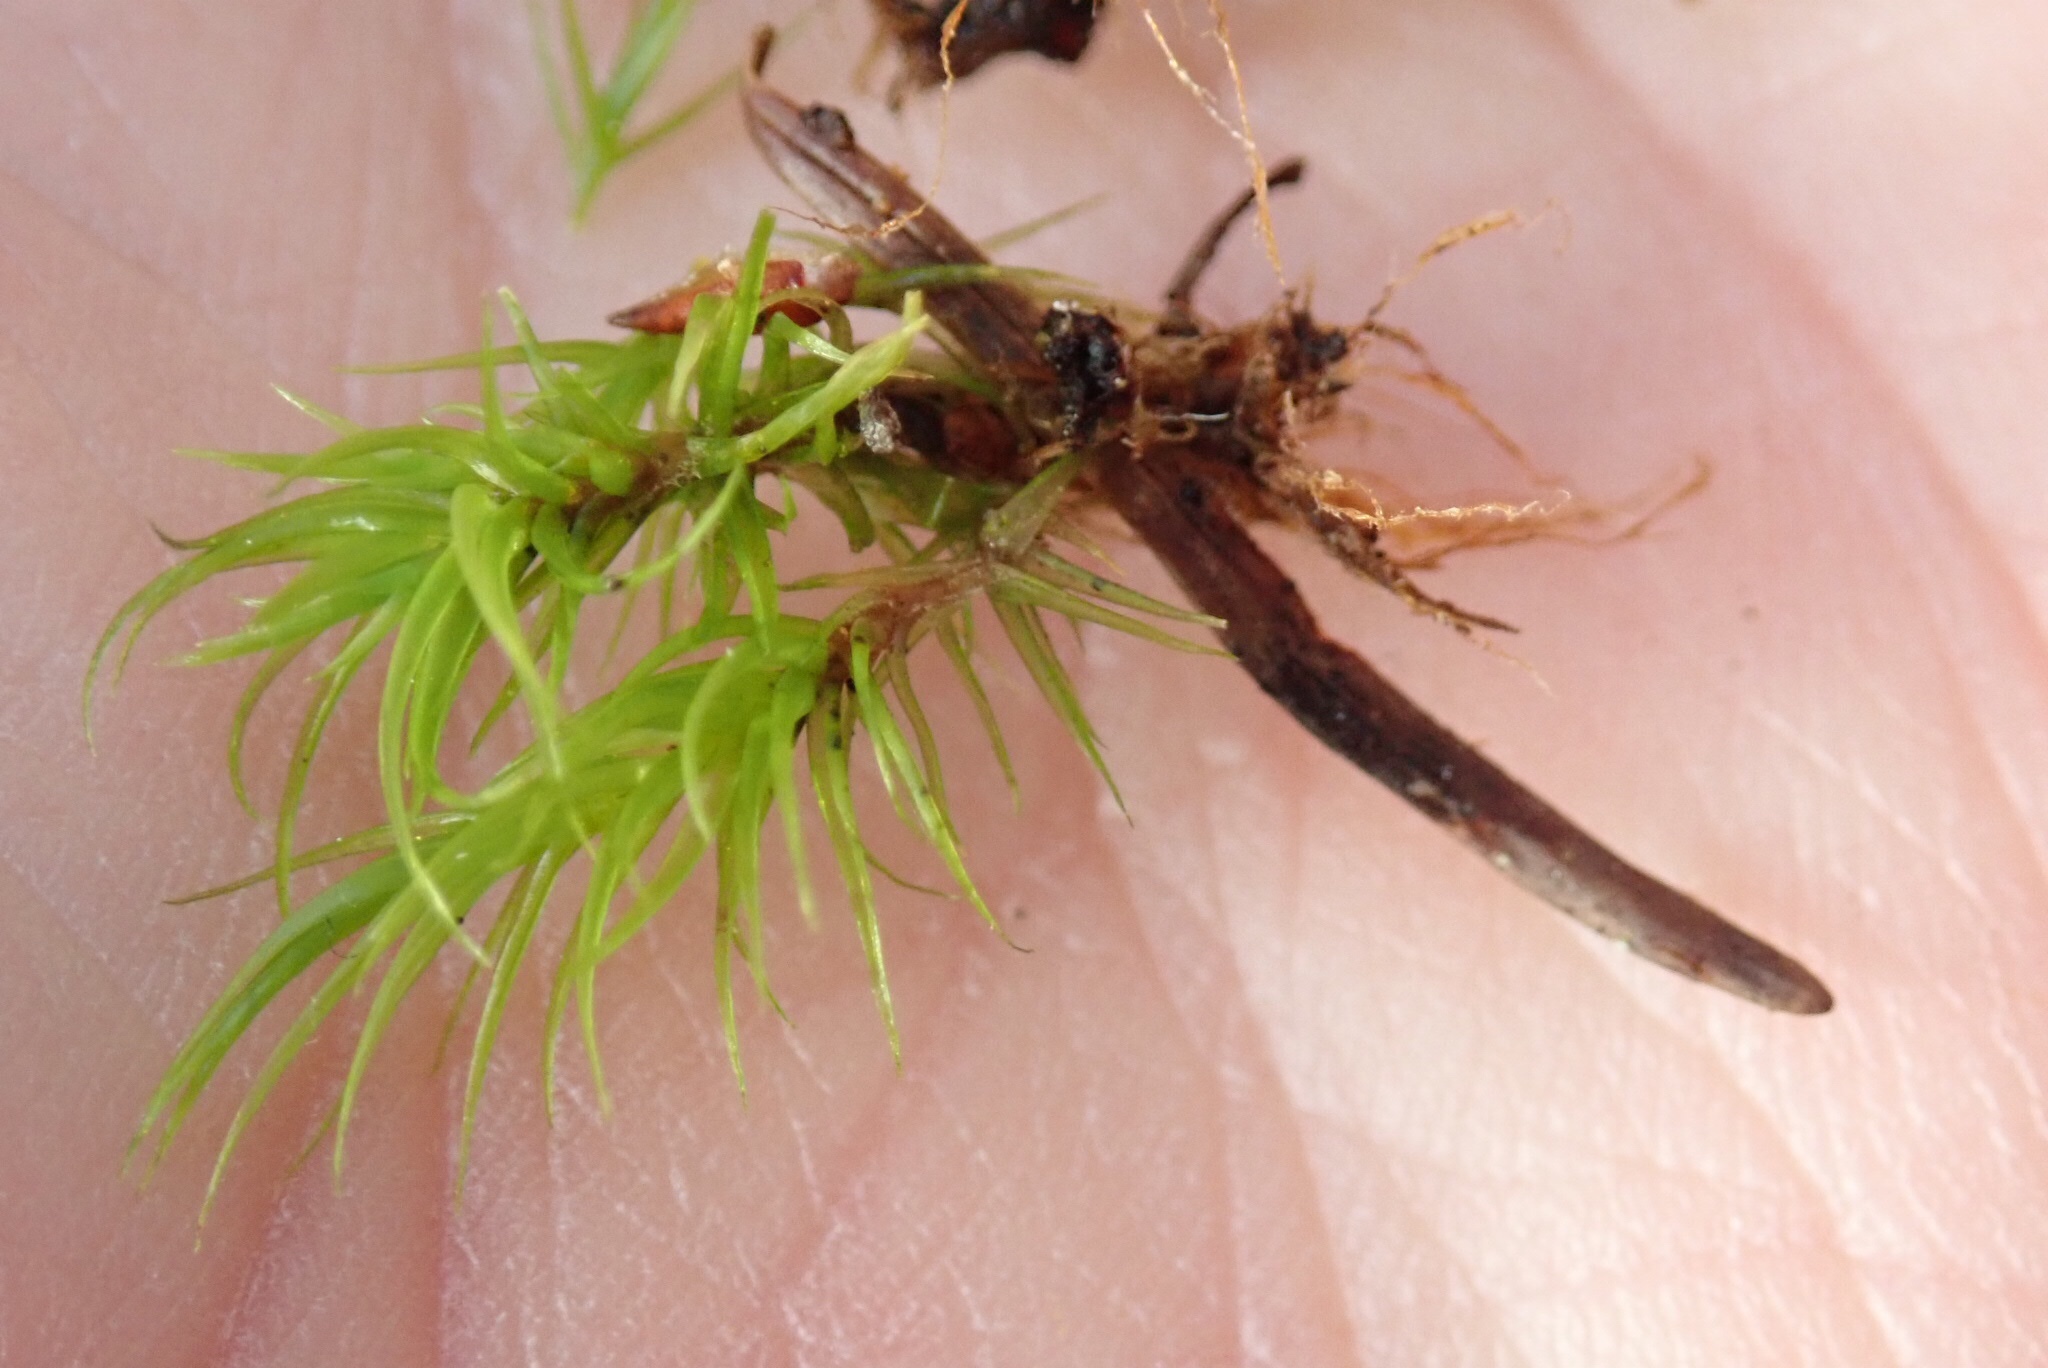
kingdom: Plantae
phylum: Bryophyta
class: Bryopsida
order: Dicranales
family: Dicranaceae
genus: Dicranum
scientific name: Dicranum scoparium
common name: Broom fork-moss
